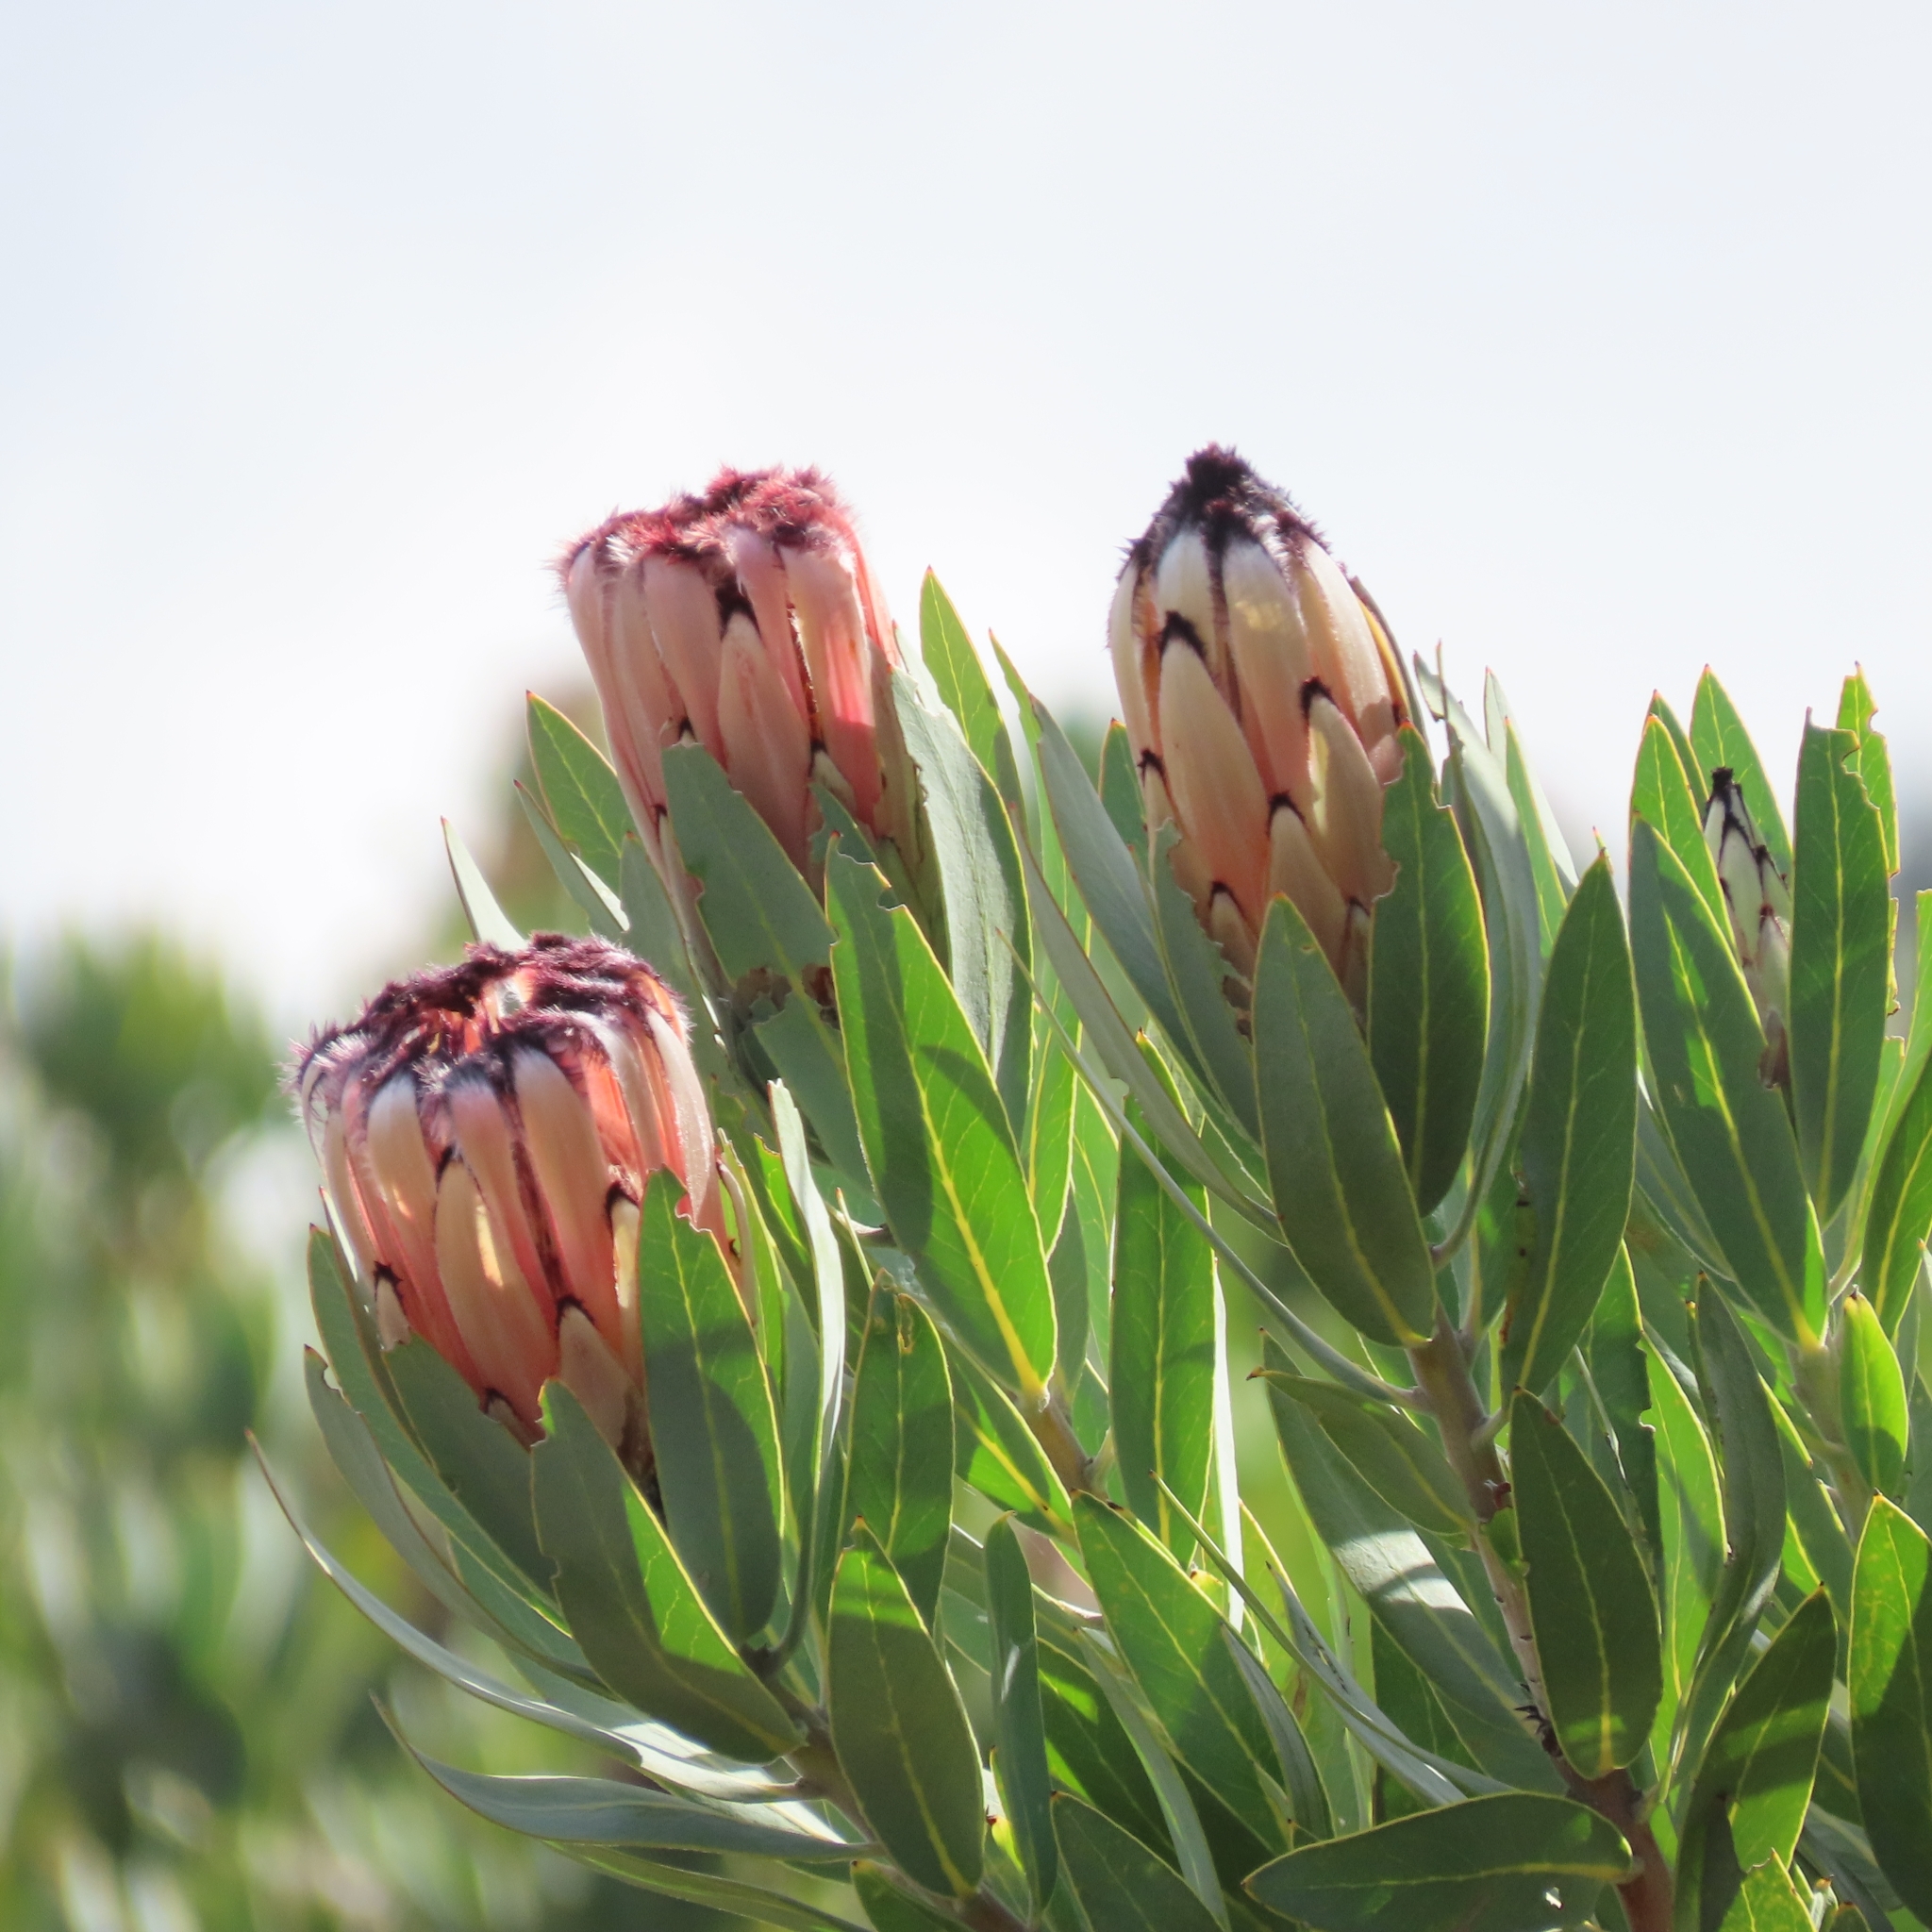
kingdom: Plantae
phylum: Tracheophyta
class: Magnoliopsida
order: Proteales
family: Proteaceae
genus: Protea
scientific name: Protea laurifolia
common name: Grey-leaf sugarbsh
